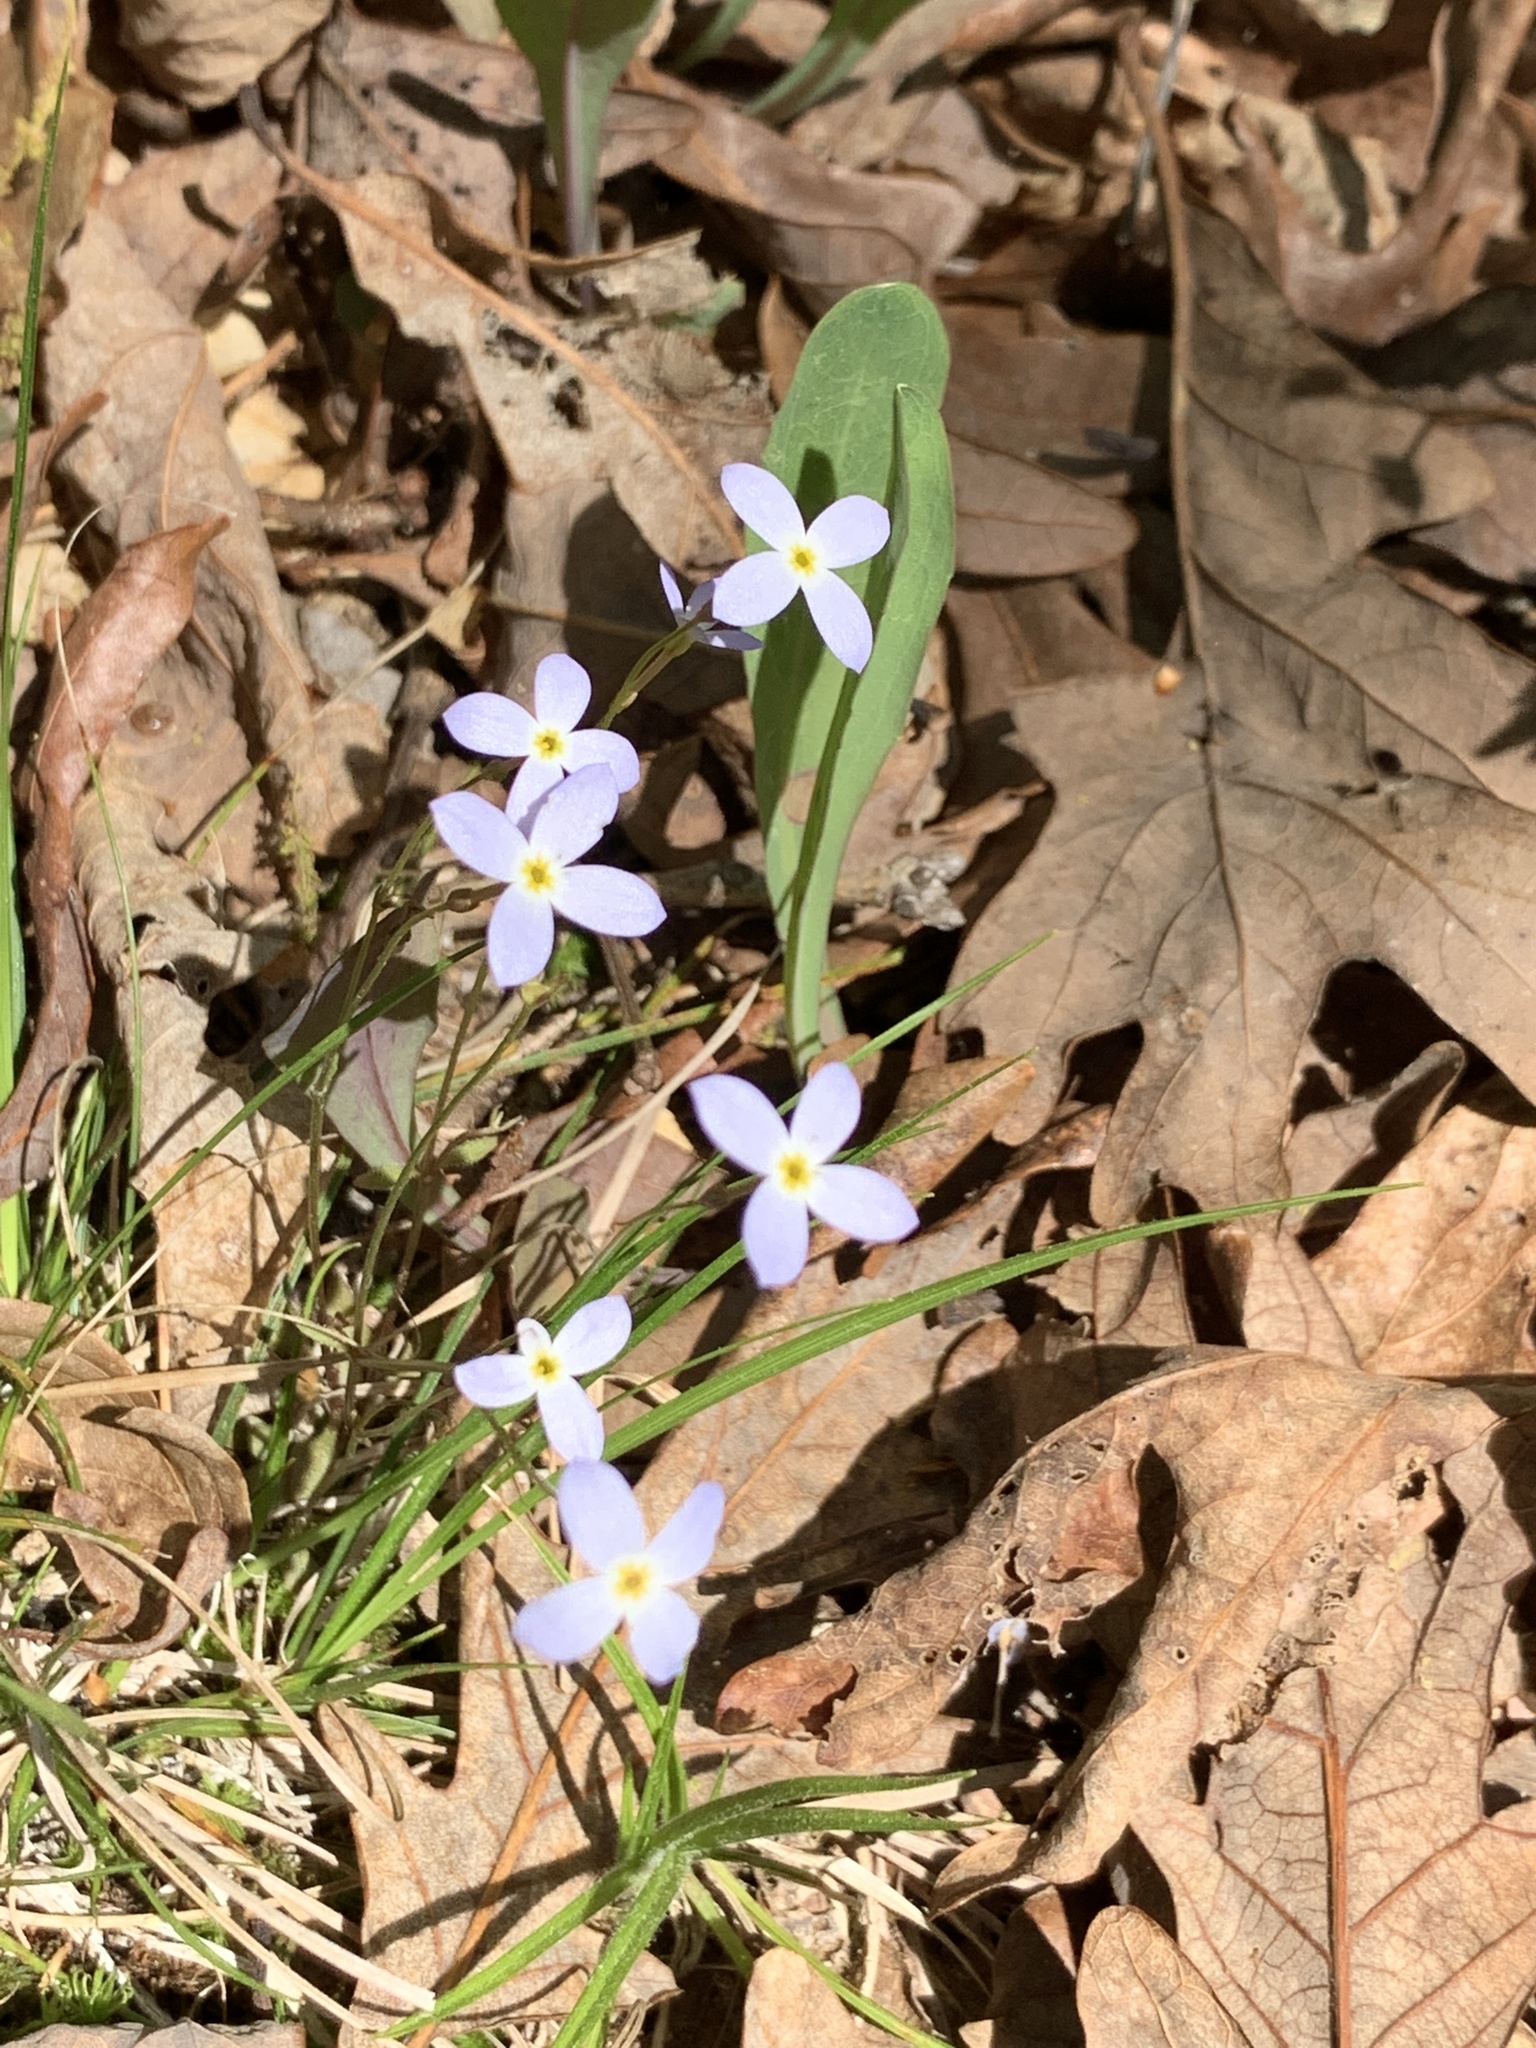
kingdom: Plantae
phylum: Tracheophyta
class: Magnoliopsida
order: Gentianales
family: Rubiaceae
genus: Houstonia
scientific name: Houstonia caerulea
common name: Bluets
